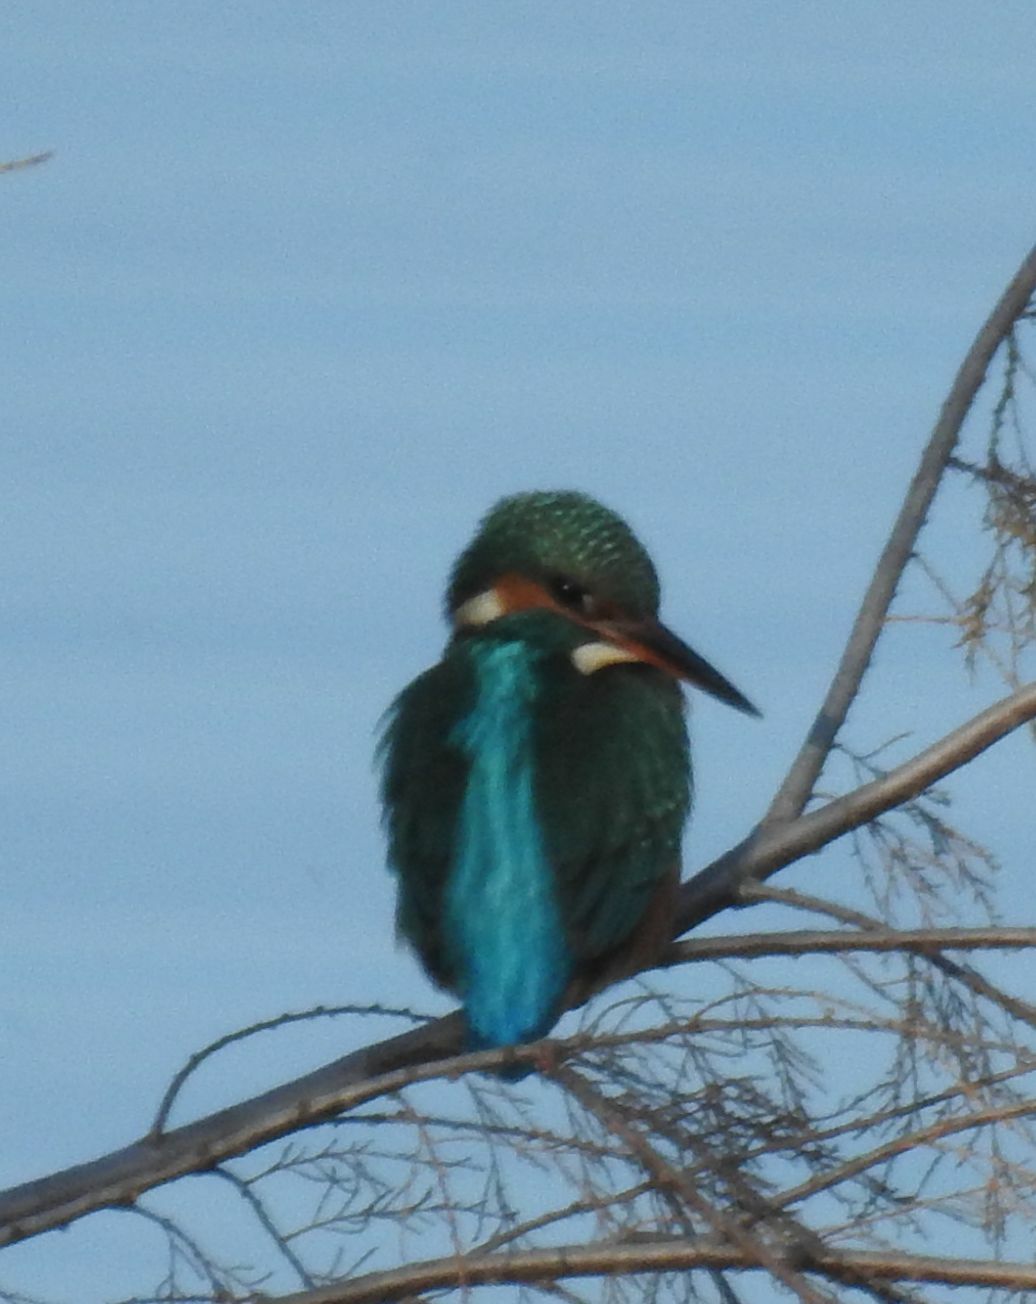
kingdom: Animalia
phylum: Chordata
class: Aves
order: Coraciiformes
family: Alcedinidae
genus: Alcedo
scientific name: Alcedo atthis
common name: Common kingfisher
